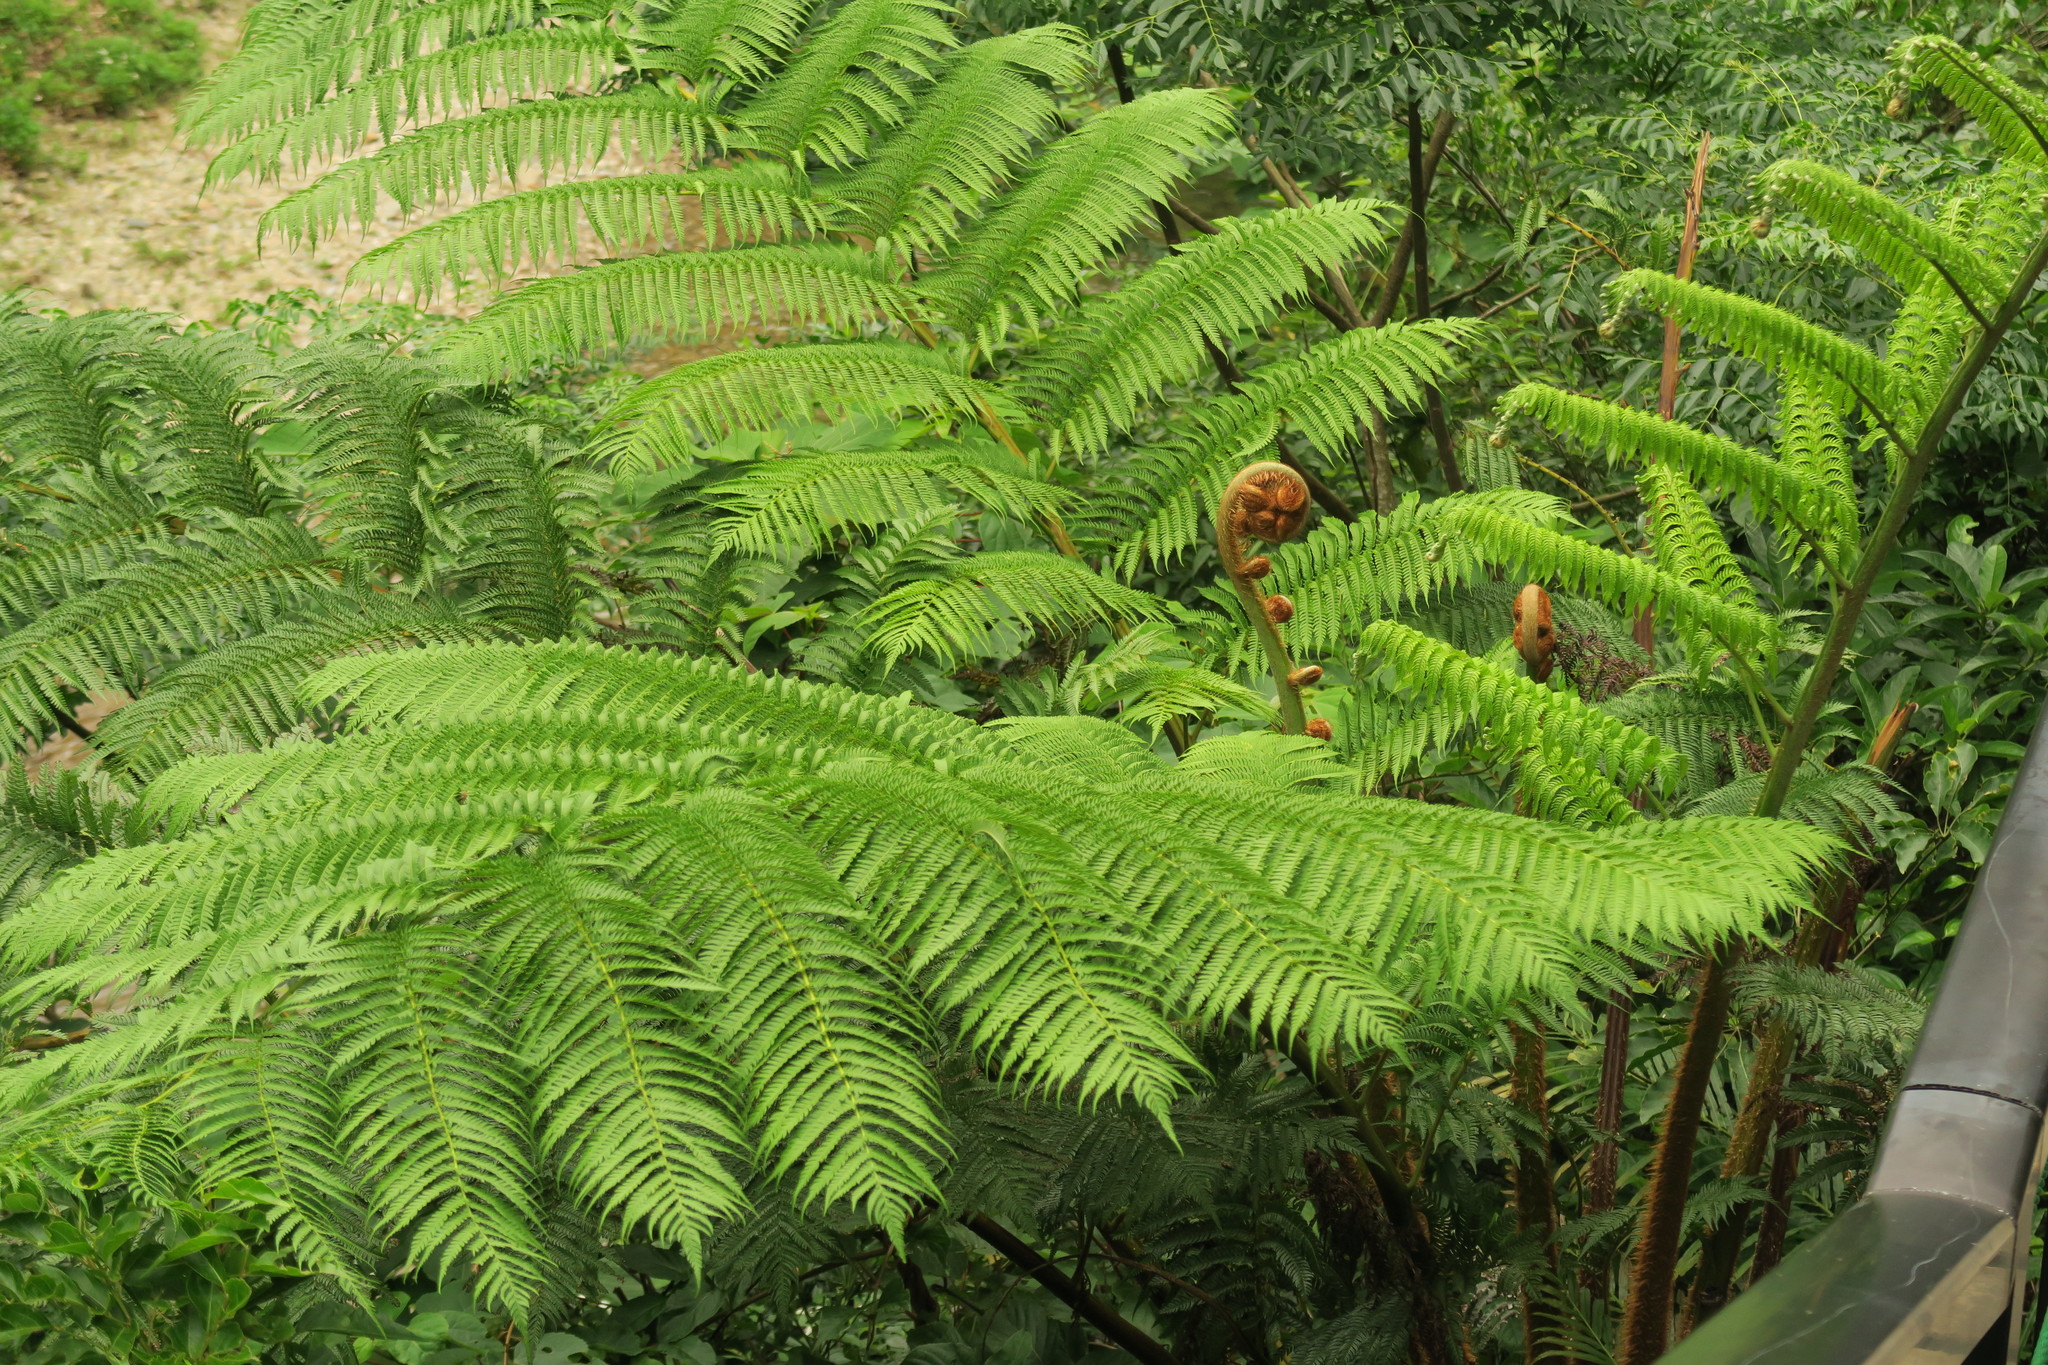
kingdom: Plantae
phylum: Tracheophyta
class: Polypodiopsida
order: Cyatheales
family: Cyatheaceae
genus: Alsophila
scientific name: Alsophila lepifera
